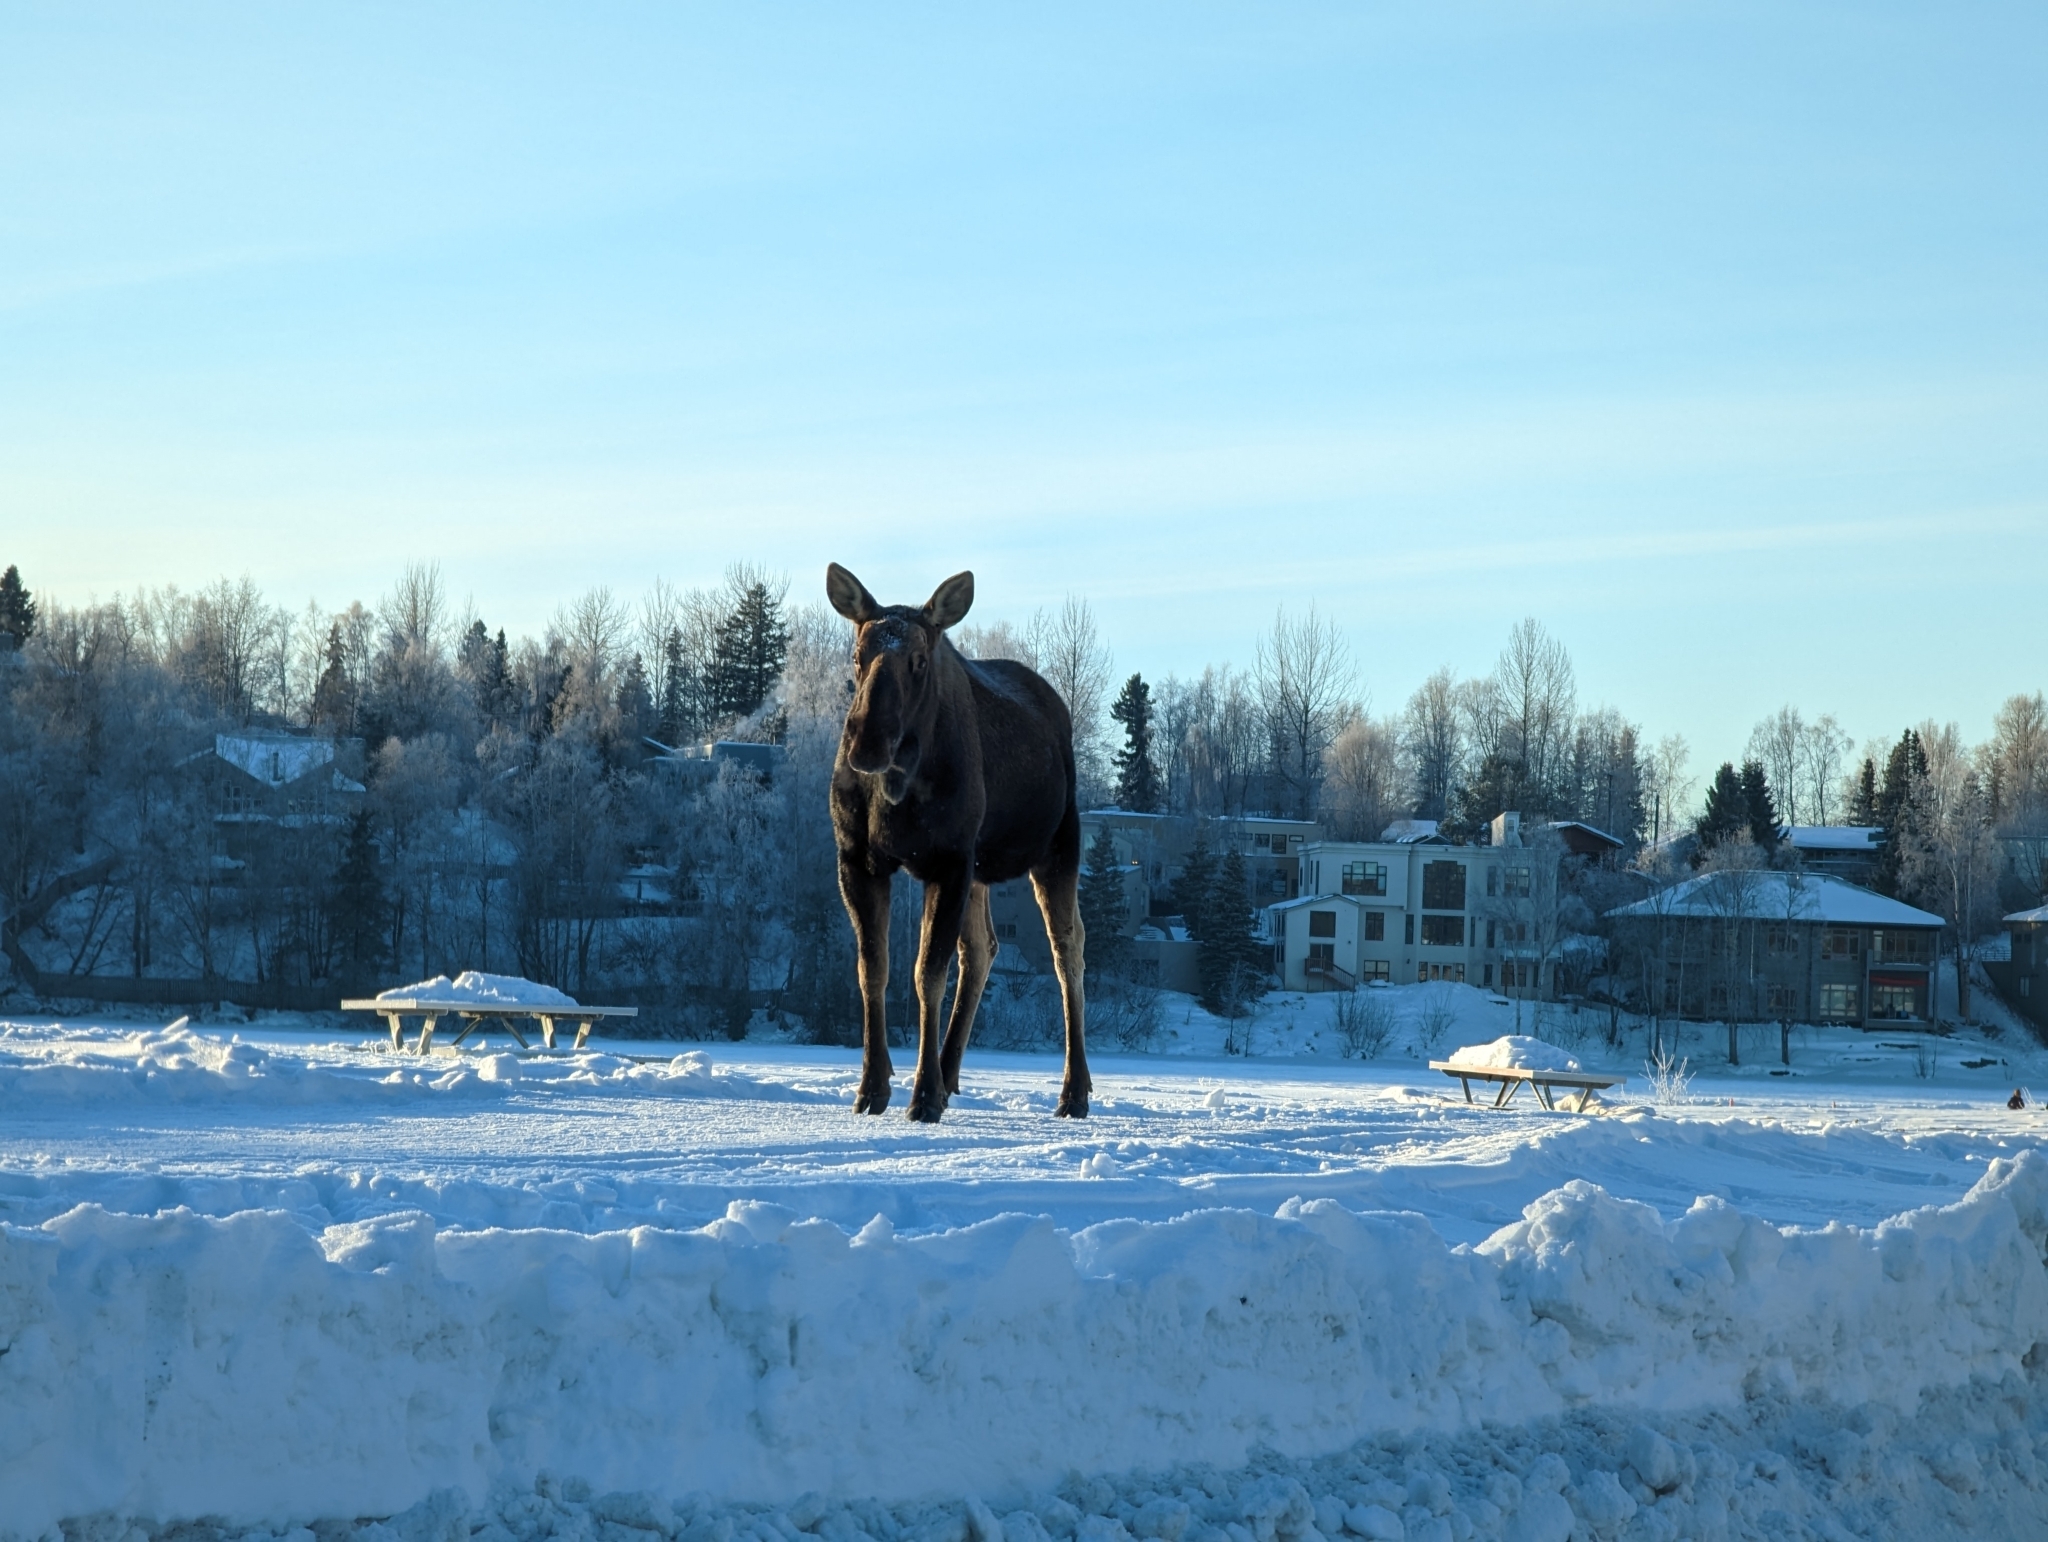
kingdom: Animalia
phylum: Chordata
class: Mammalia
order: Artiodactyla
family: Cervidae
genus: Alces
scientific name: Alces alces
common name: Moose
